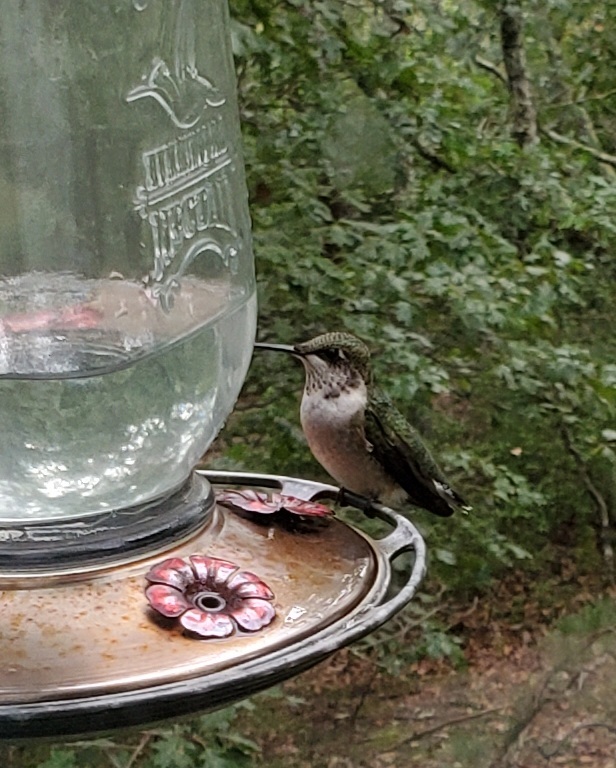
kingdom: Animalia
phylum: Chordata
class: Aves
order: Apodiformes
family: Trochilidae
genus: Archilochus
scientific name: Archilochus colubris
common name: Ruby-throated hummingbird
